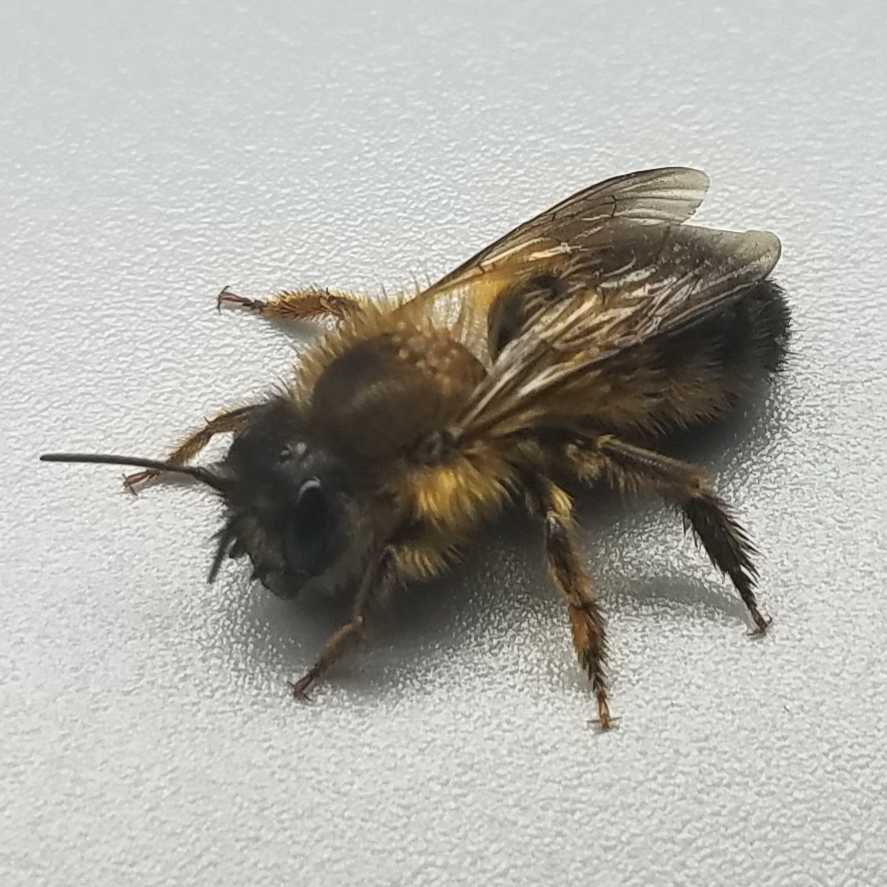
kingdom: Animalia
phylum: Arthropoda
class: Insecta
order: Hymenoptera
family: Megachilidae
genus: Osmia
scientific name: Osmia taurus
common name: Taurus mason bee
